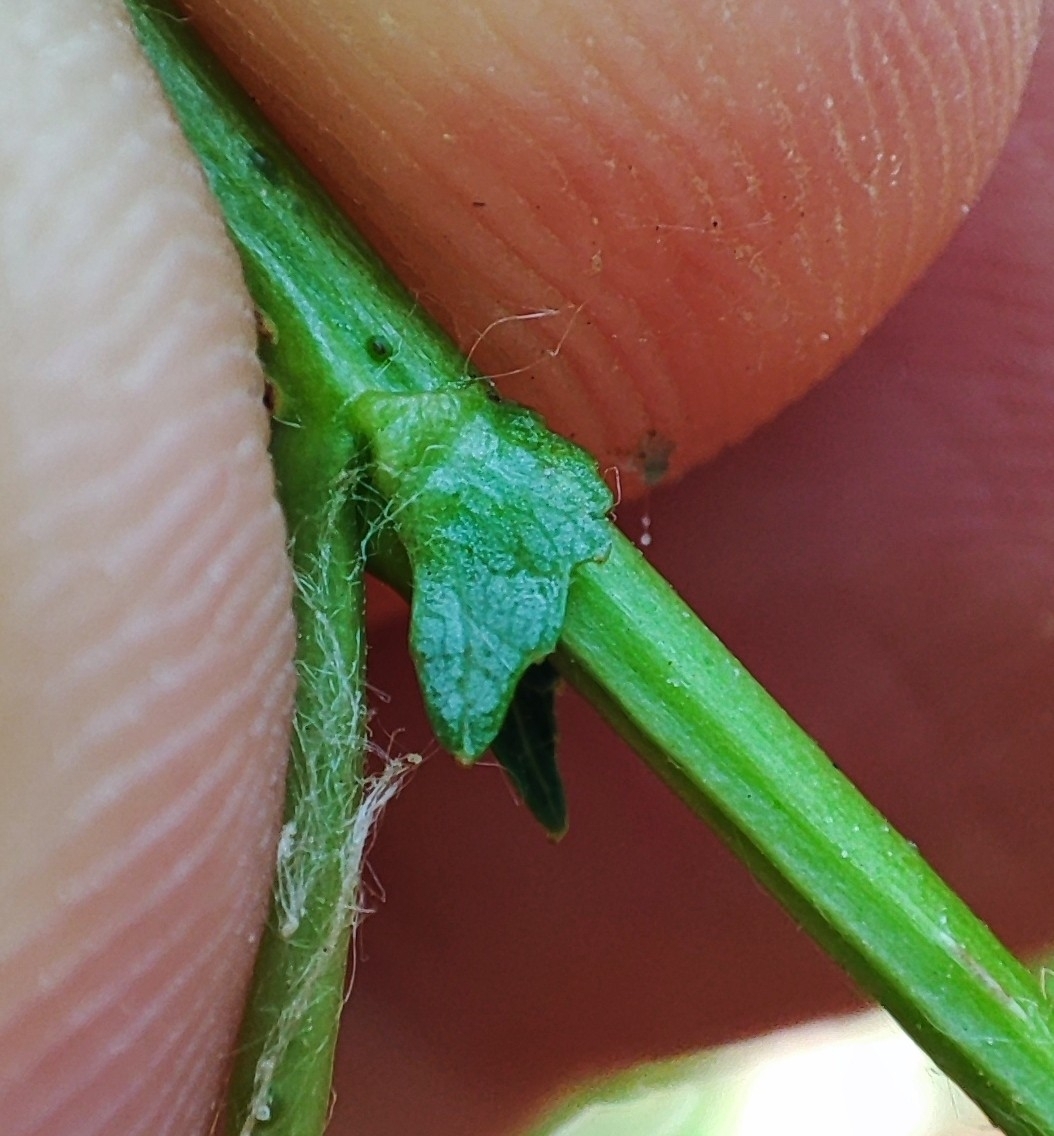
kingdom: Plantae
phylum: Tracheophyta
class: Magnoliopsida
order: Malpighiales
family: Salicaceae
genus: Salix
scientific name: Salix triandra
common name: Almond willow
